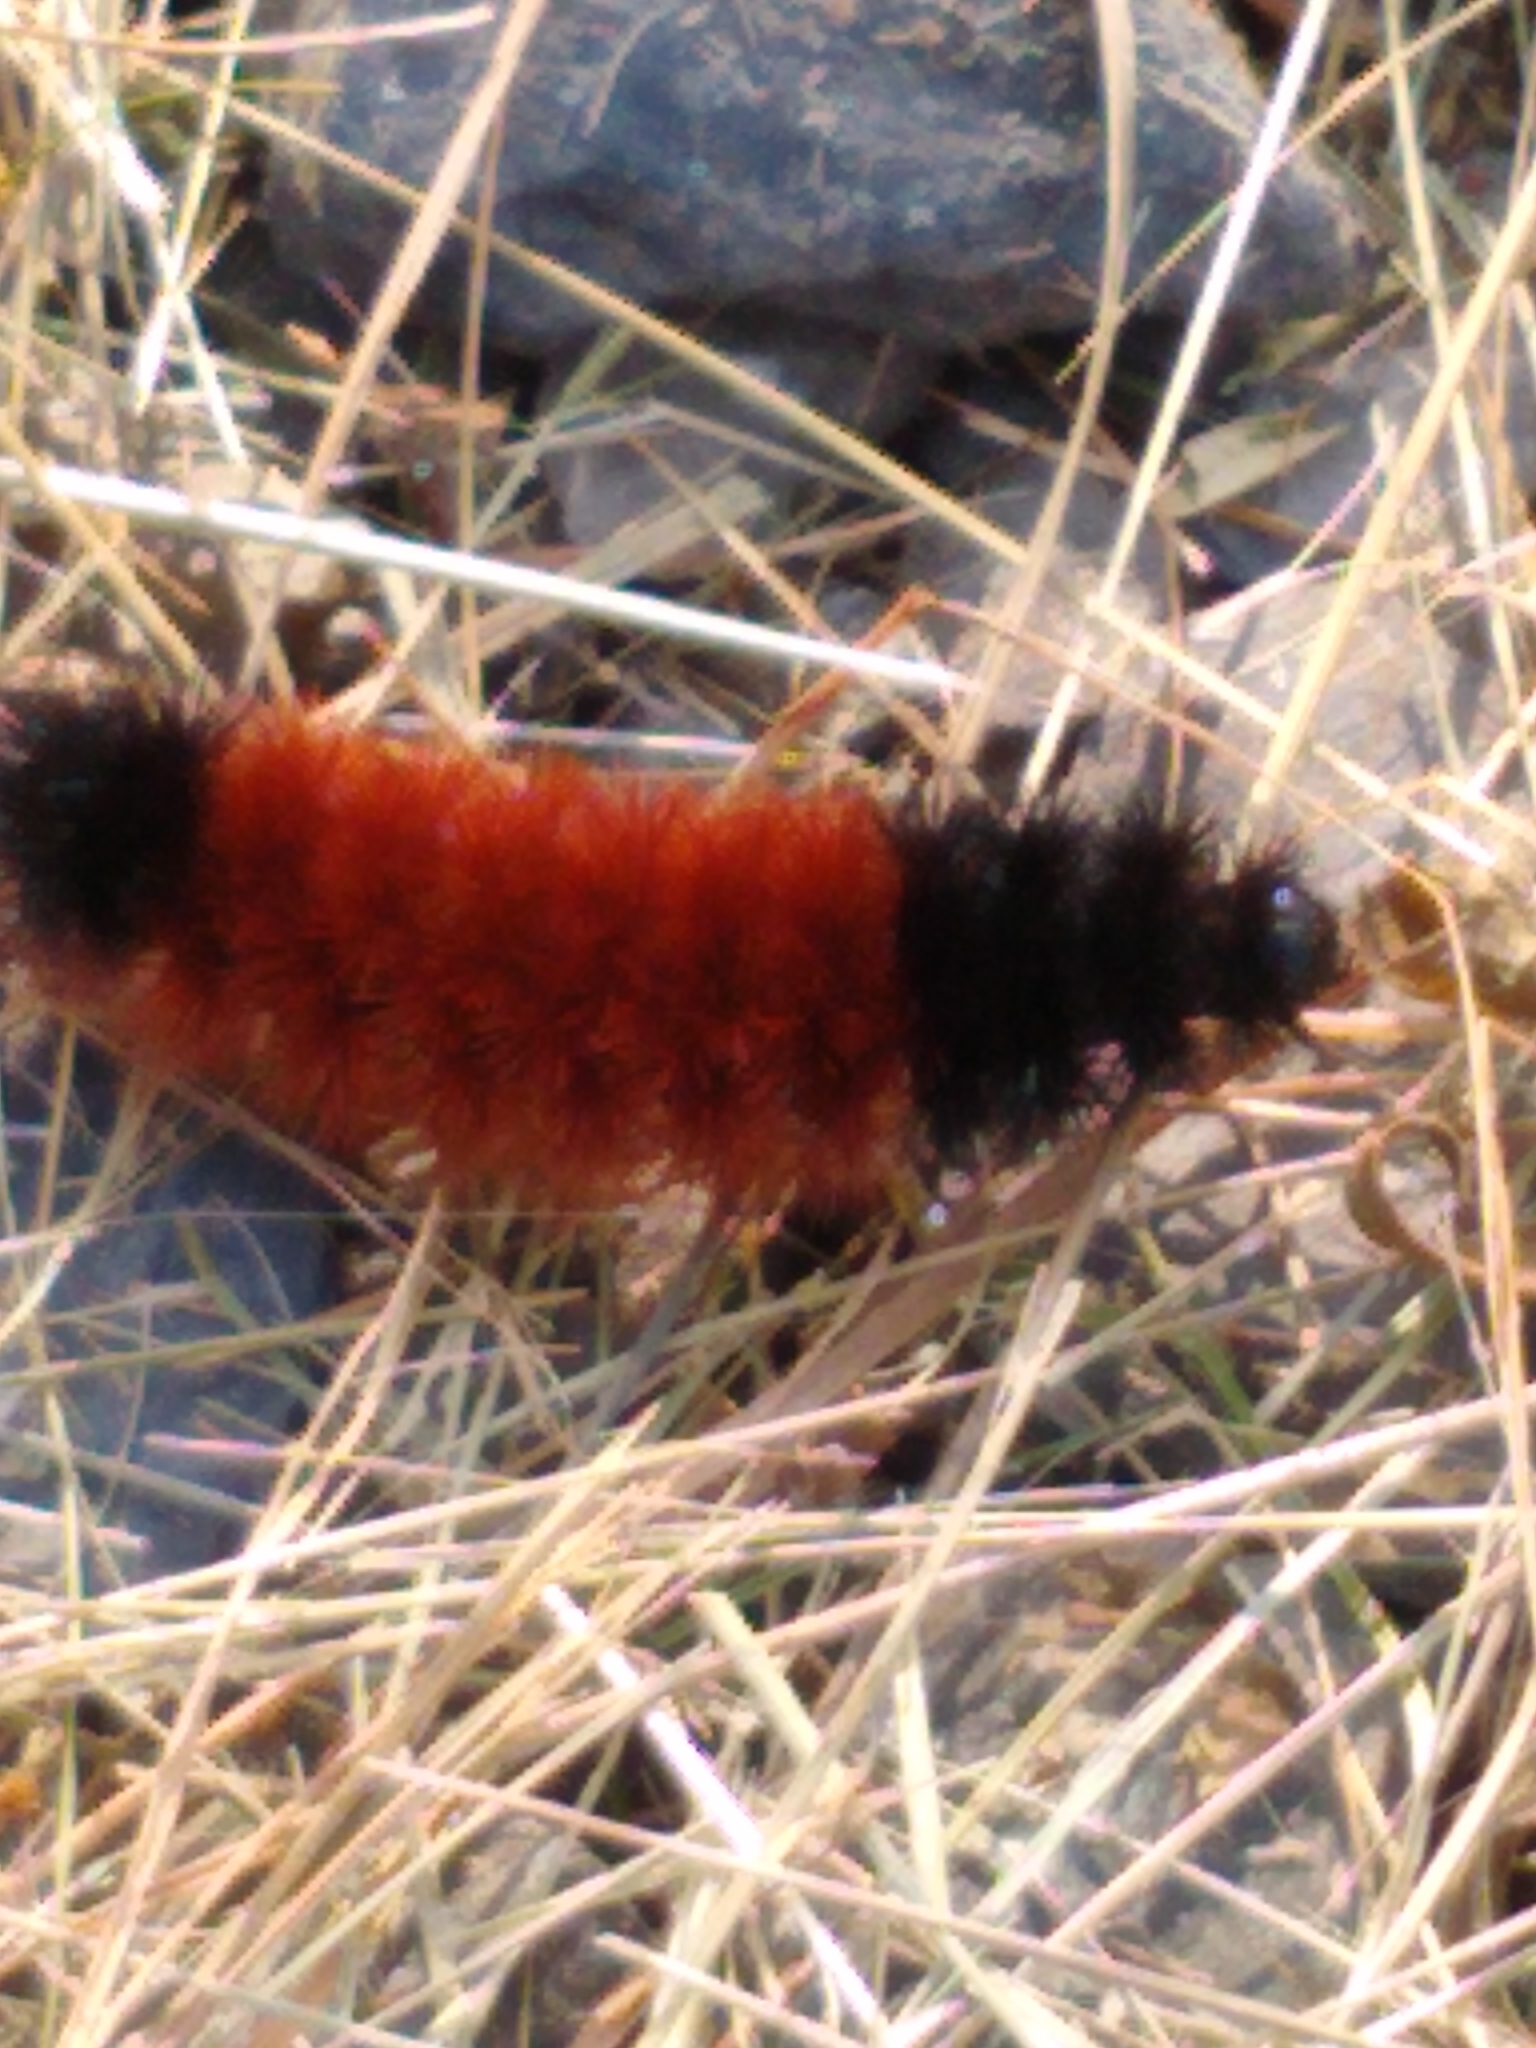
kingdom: Animalia
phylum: Arthropoda
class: Insecta
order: Lepidoptera
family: Erebidae
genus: Pyrrharctia
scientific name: Pyrrharctia isabella
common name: Isabella tiger moth
